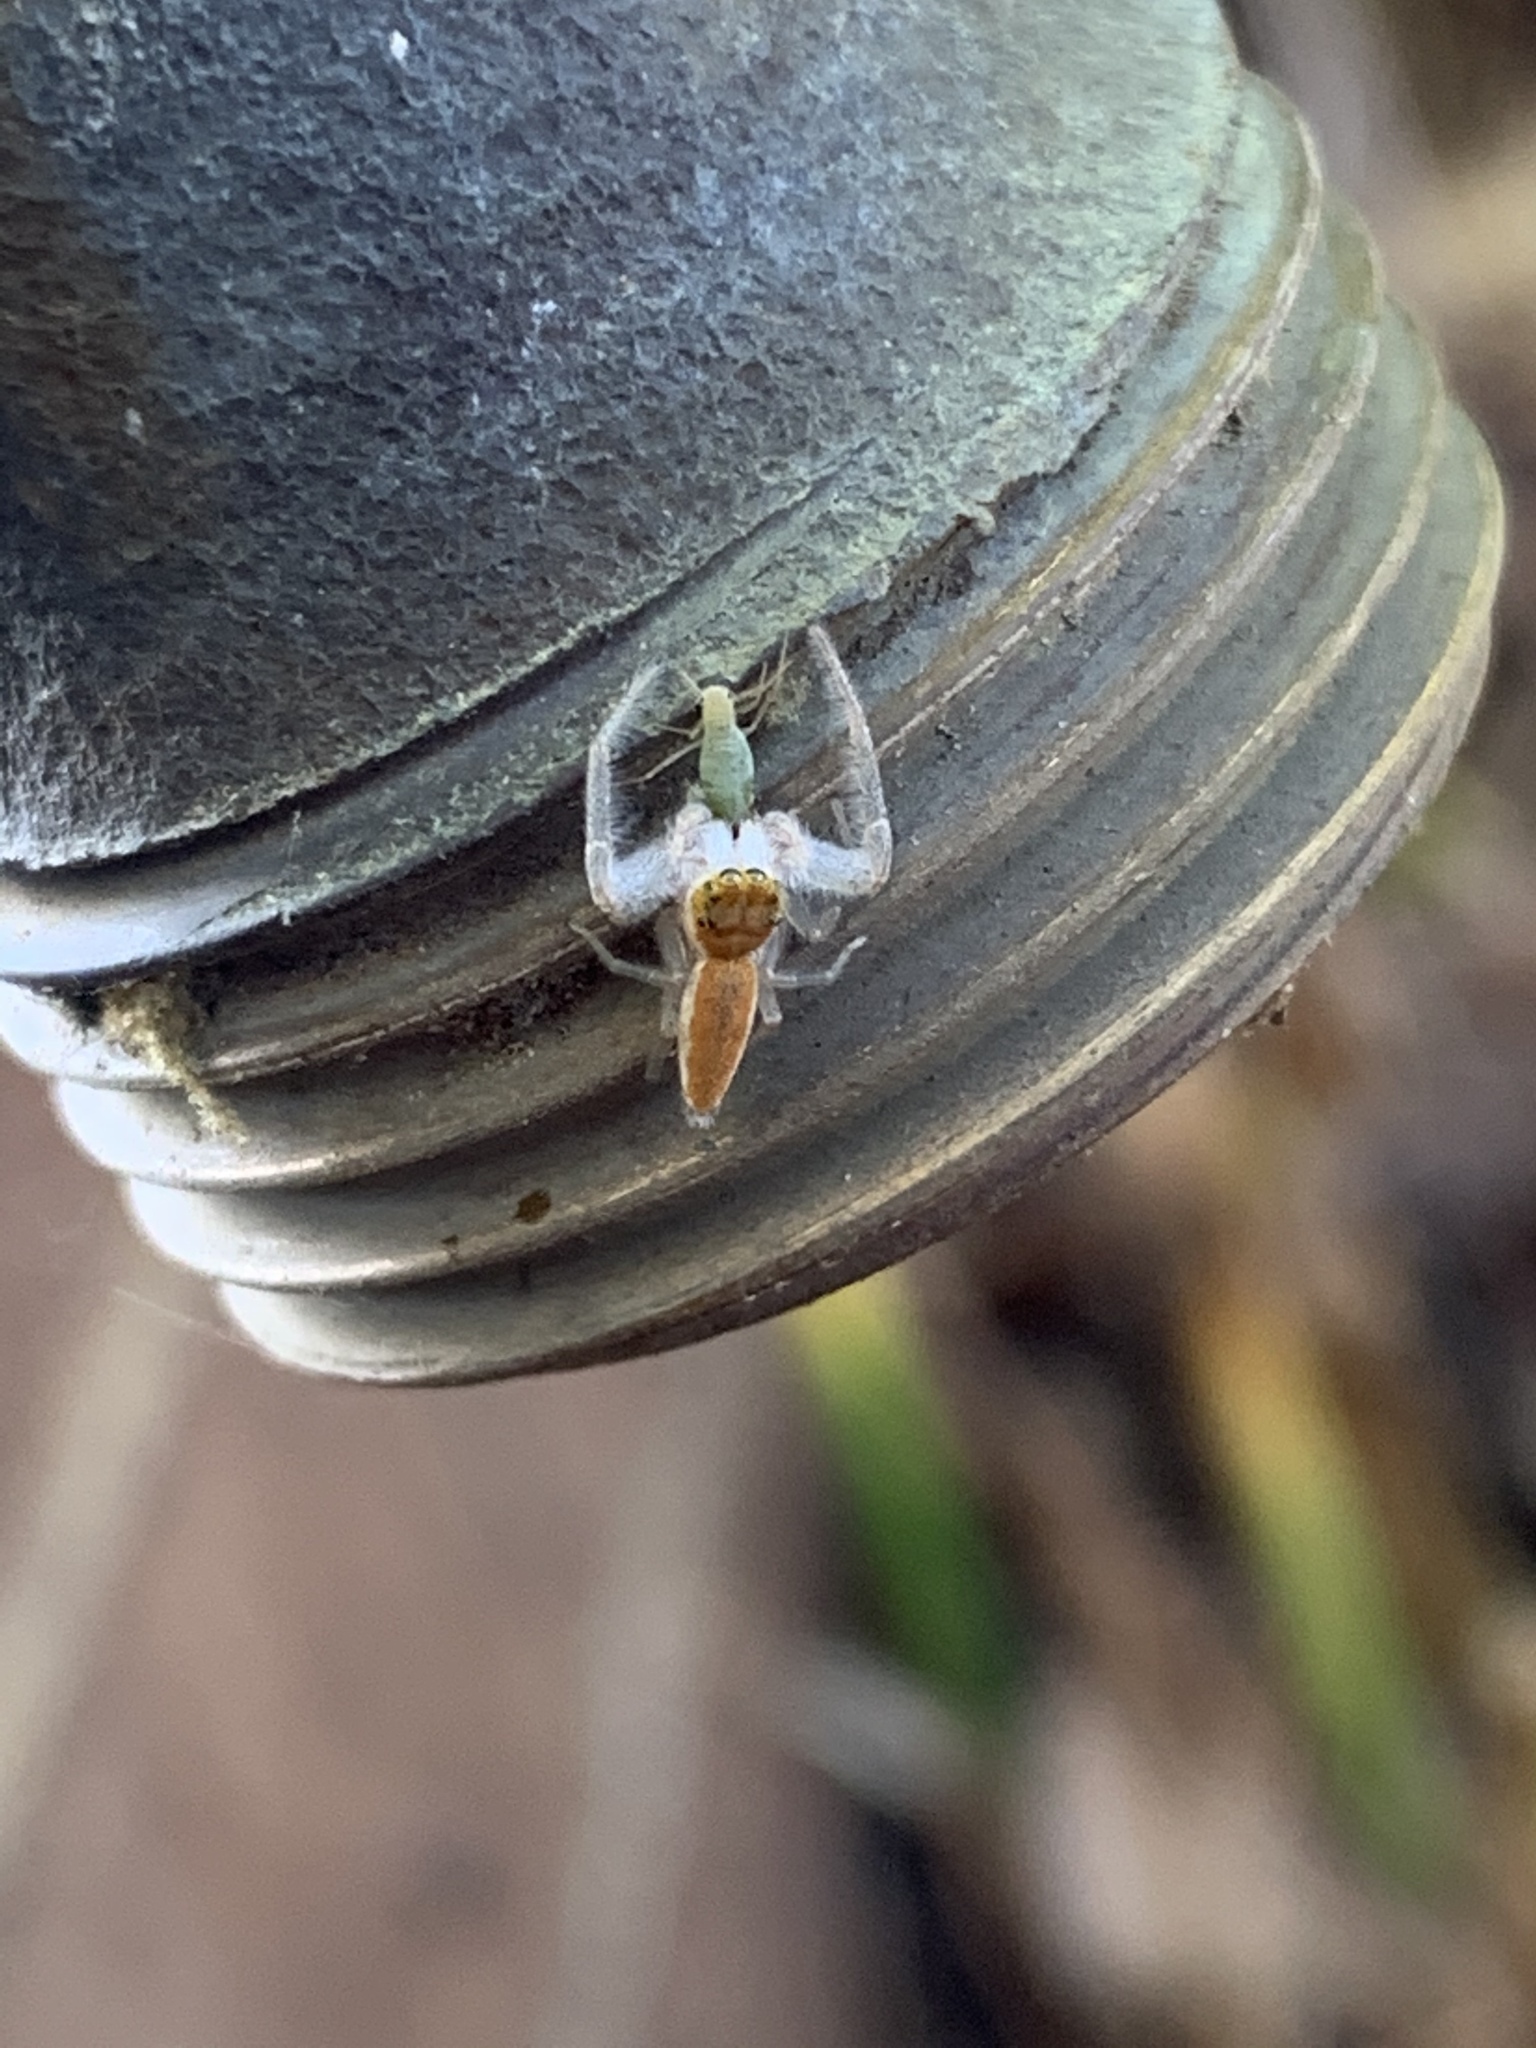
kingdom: Animalia
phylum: Arthropoda
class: Arachnida
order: Araneae
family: Salticidae
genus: Hentzia
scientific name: Hentzia mitrata
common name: White-jawed jumping spider
